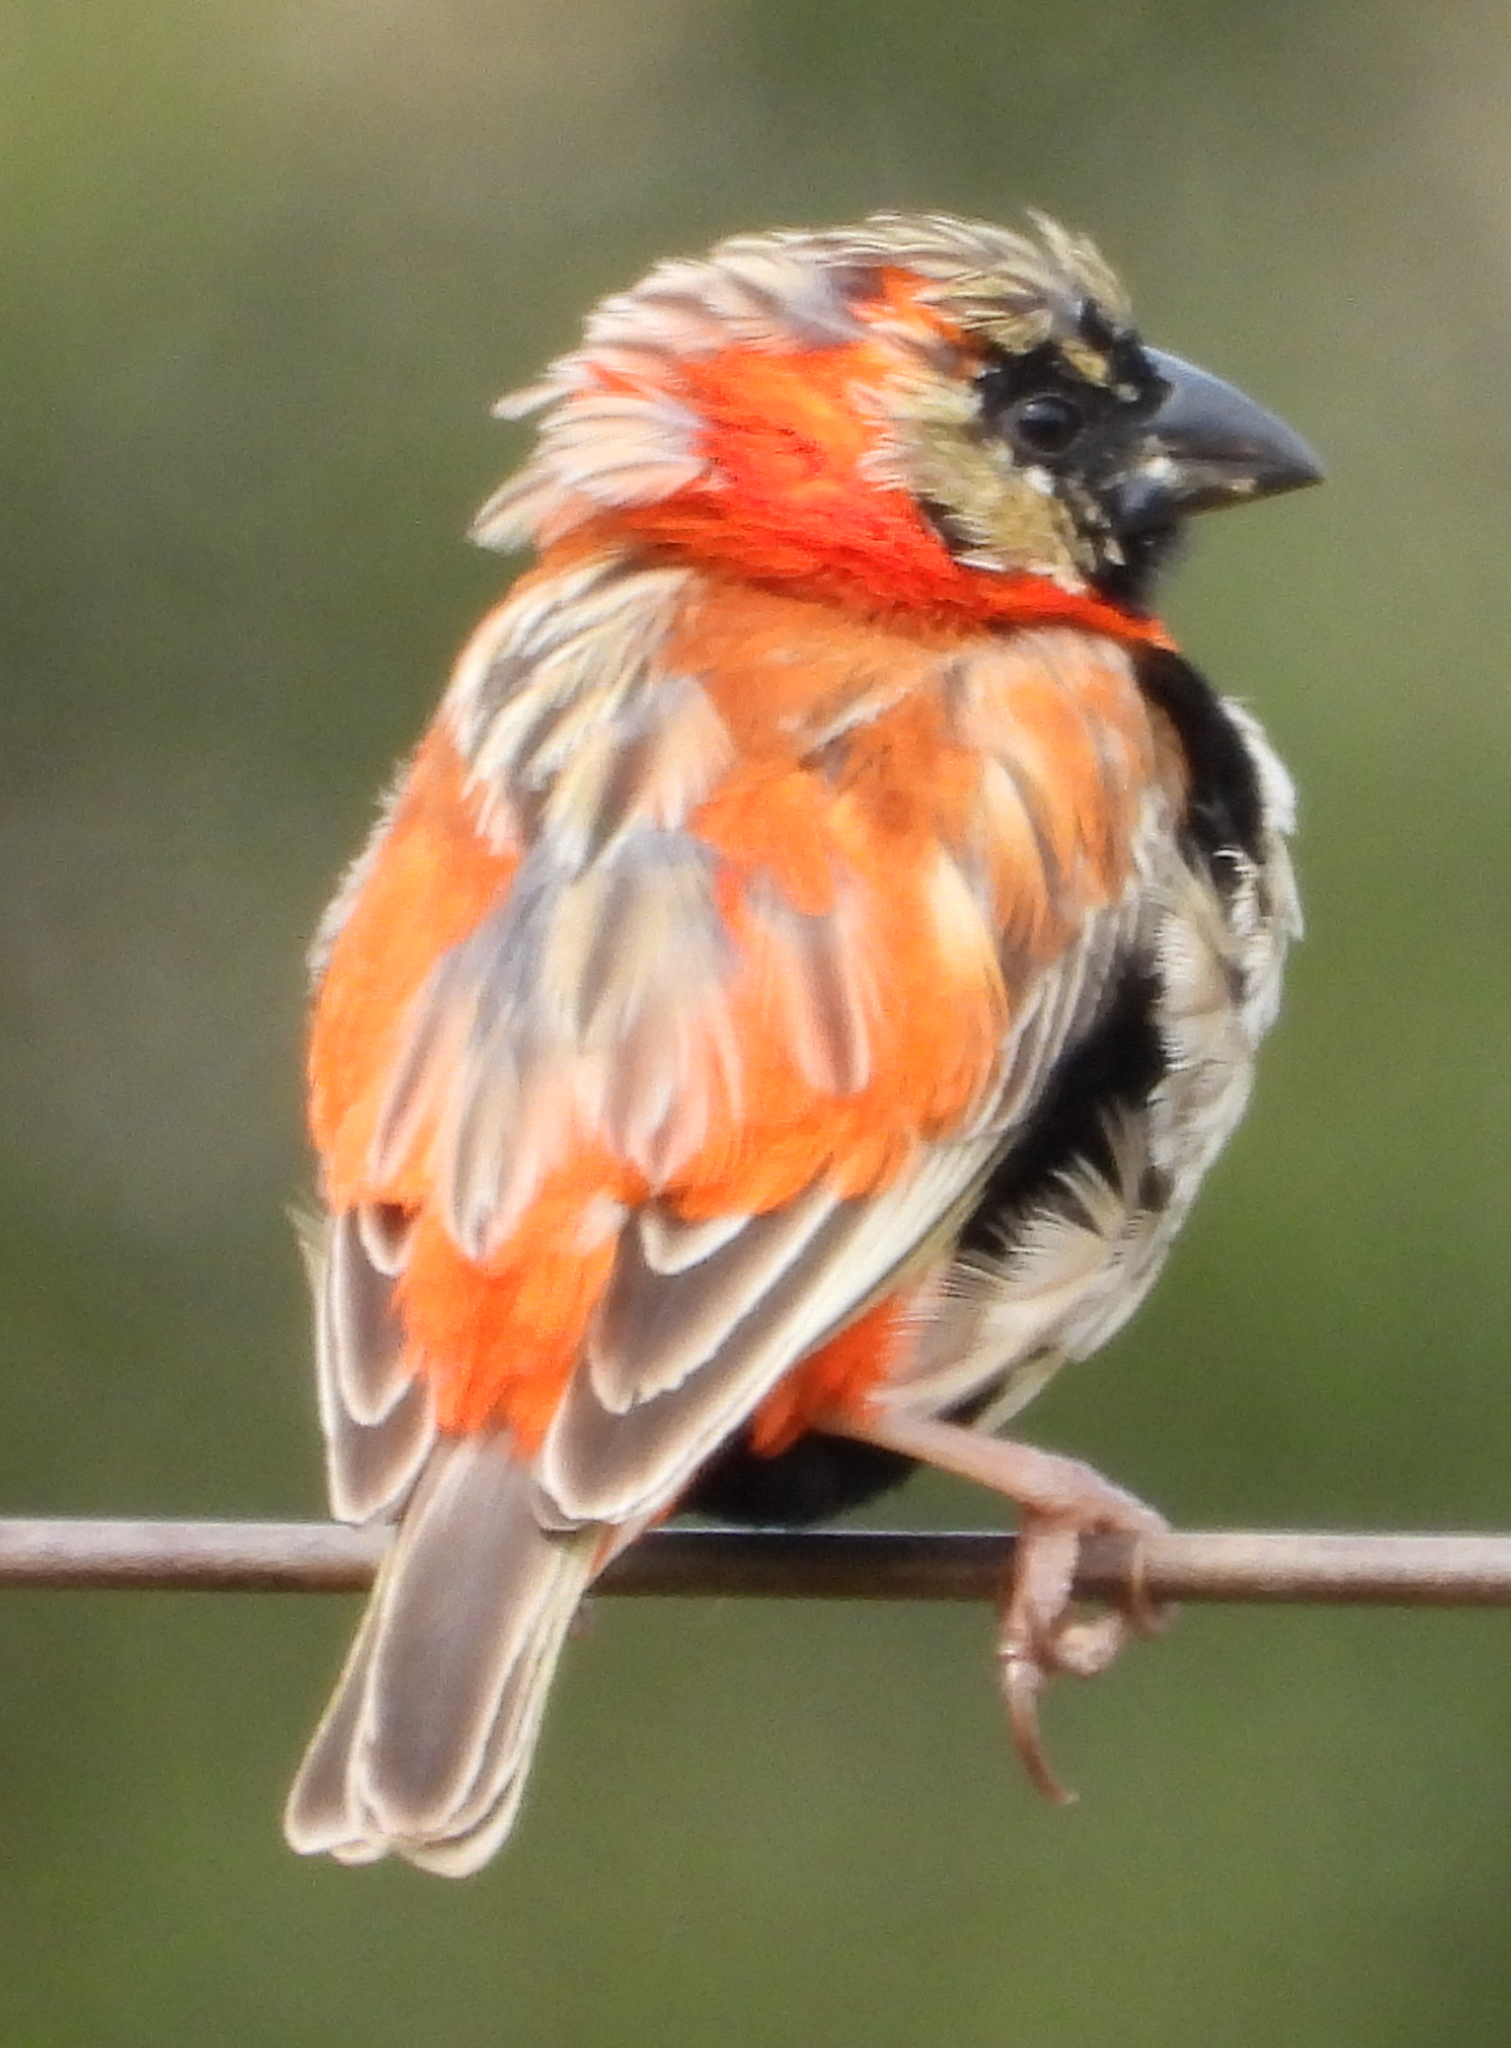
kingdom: Animalia
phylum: Chordata
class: Aves
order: Passeriformes
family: Ploceidae
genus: Euplectes
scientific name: Euplectes orix
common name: Southern red bishop
